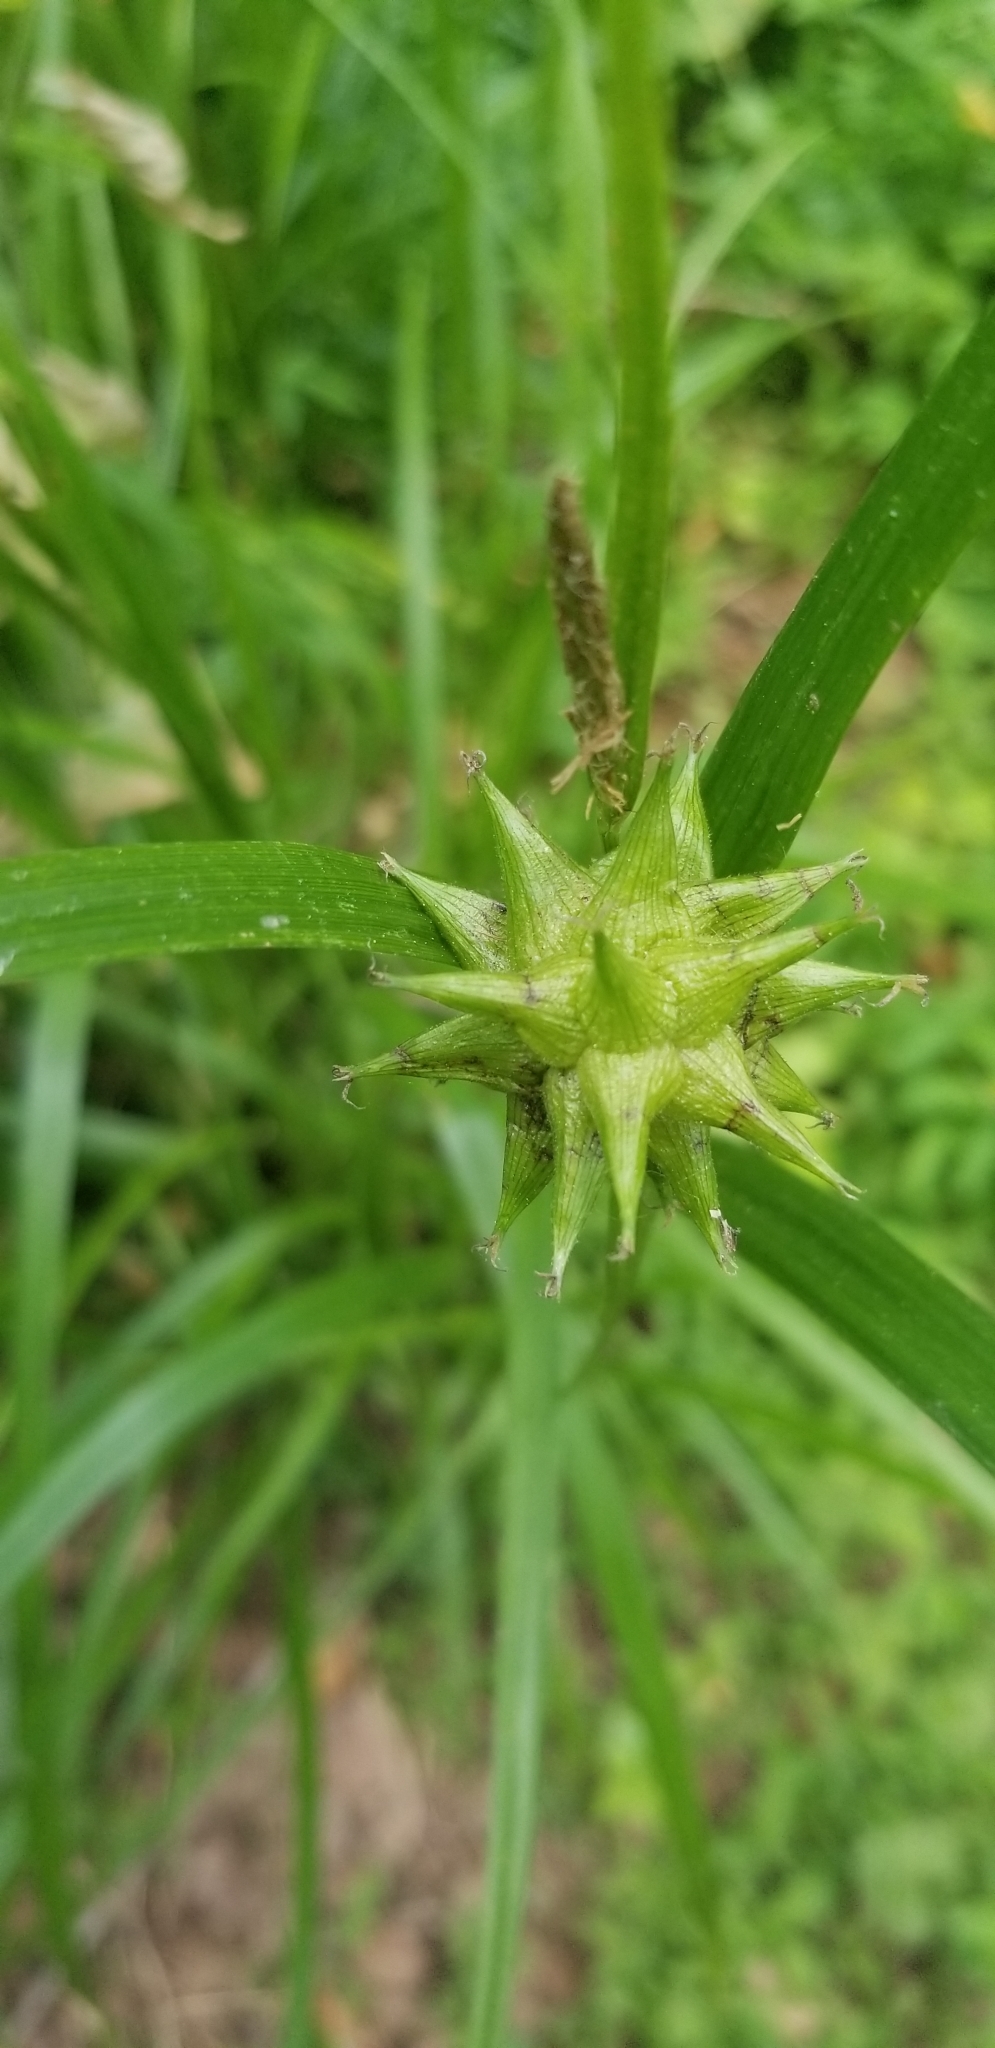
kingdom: Plantae
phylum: Tracheophyta
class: Liliopsida
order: Poales
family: Cyperaceae
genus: Carex
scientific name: Carex grayi
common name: Asa gray's sedge
